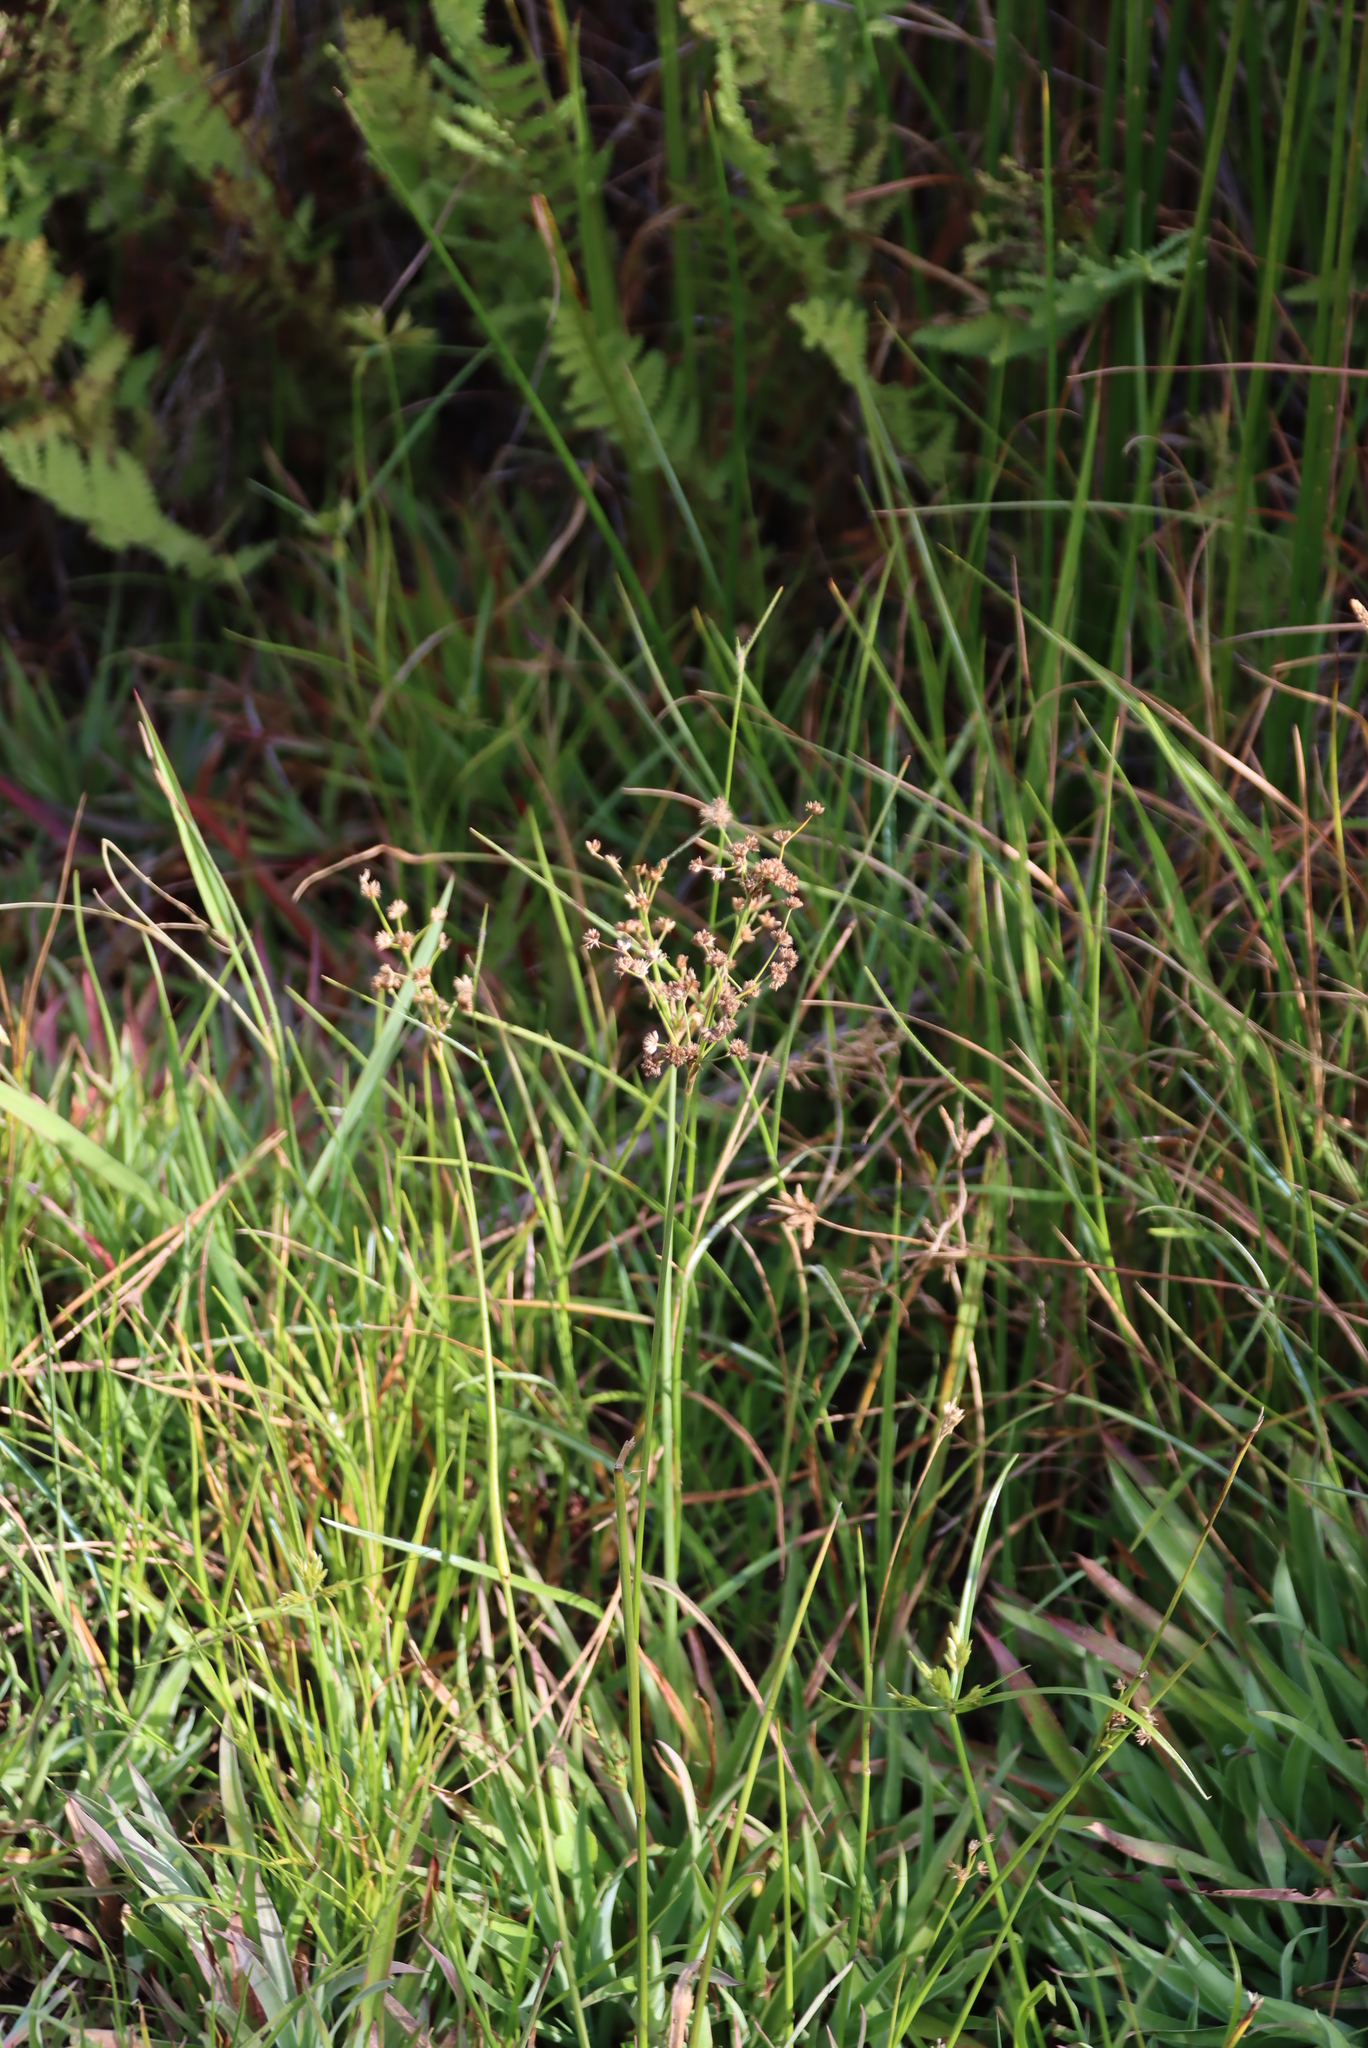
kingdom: Plantae
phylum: Tracheophyta
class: Liliopsida
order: Poales
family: Juncaceae
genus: Juncus
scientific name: Juncus lomatophyllus
